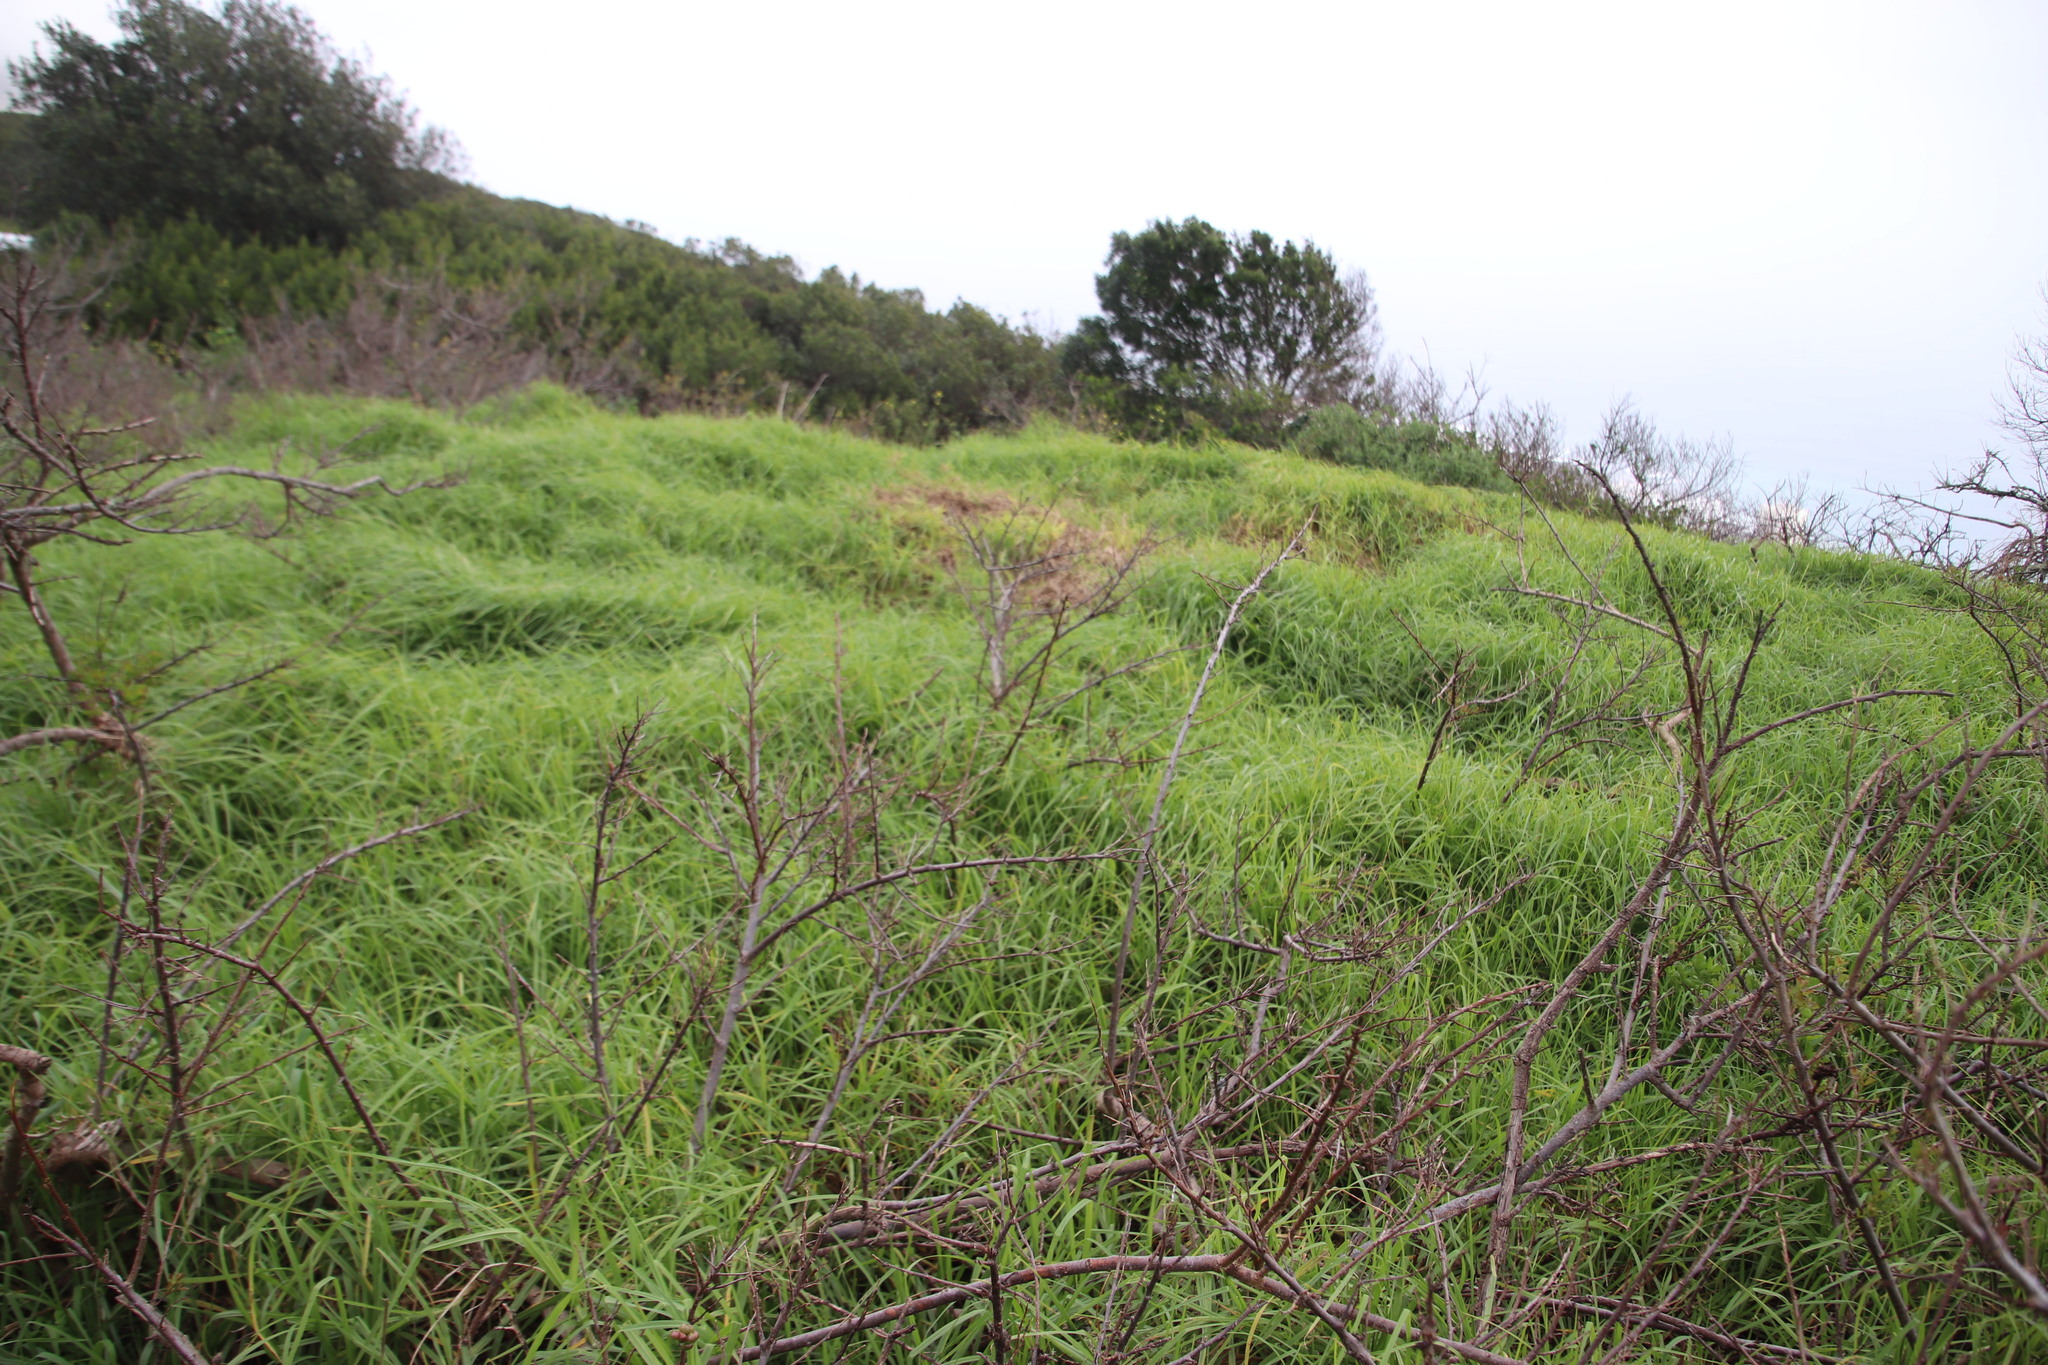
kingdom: Plantae
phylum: Tracheophyta
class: Liliopsida
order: Poales
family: Poaceae
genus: Cenchrus
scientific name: Cenchrus clandestinus
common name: Kikuyugrass
